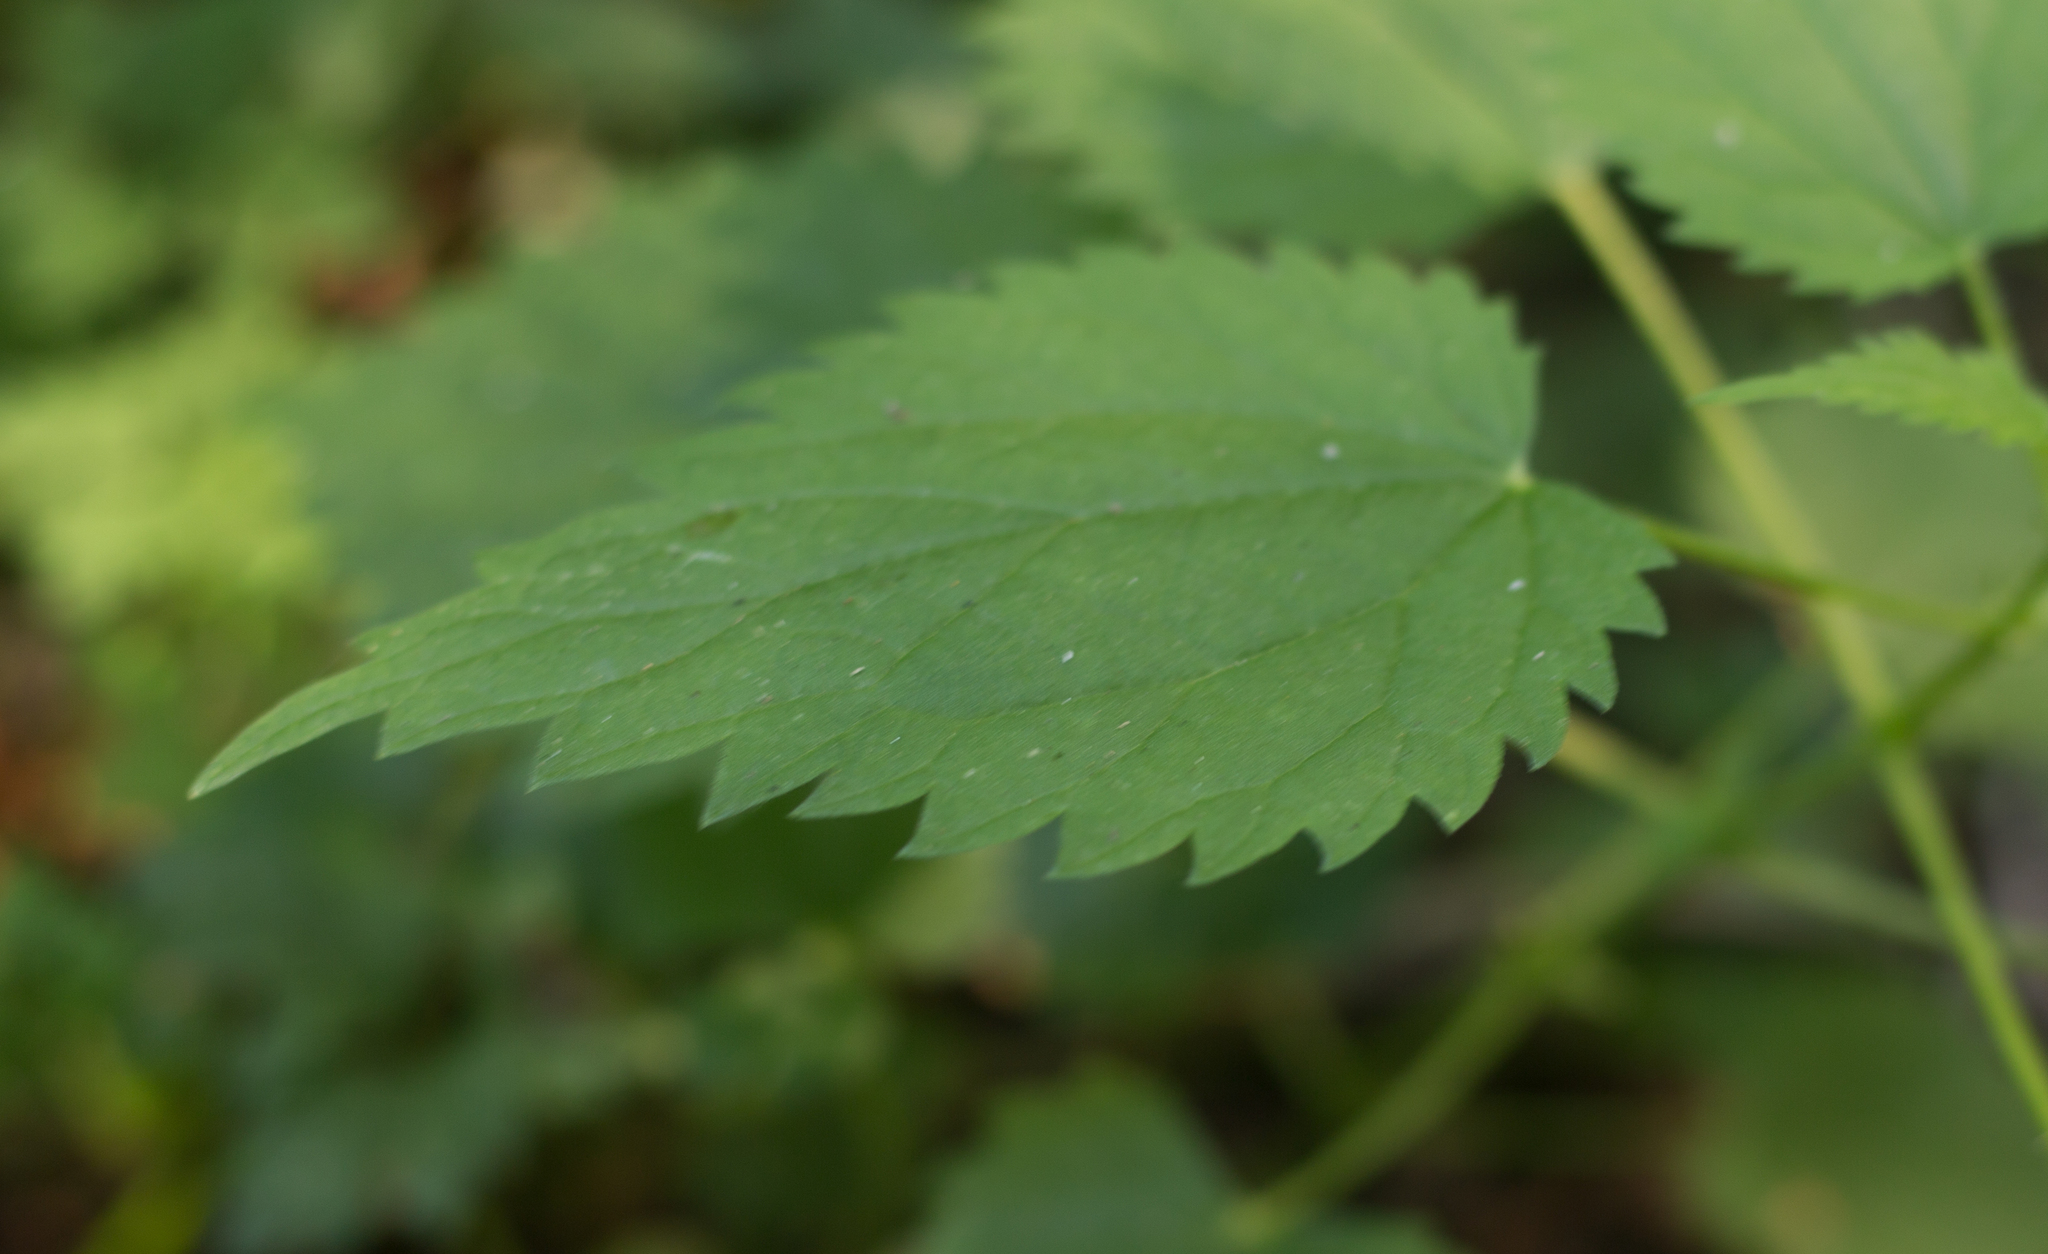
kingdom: Plantae
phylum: Tracheophyta
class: Magnoliopsida
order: Rosales
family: Urticaceae
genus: Urtica
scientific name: Urtica gracilis
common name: Slender stinging nettle
